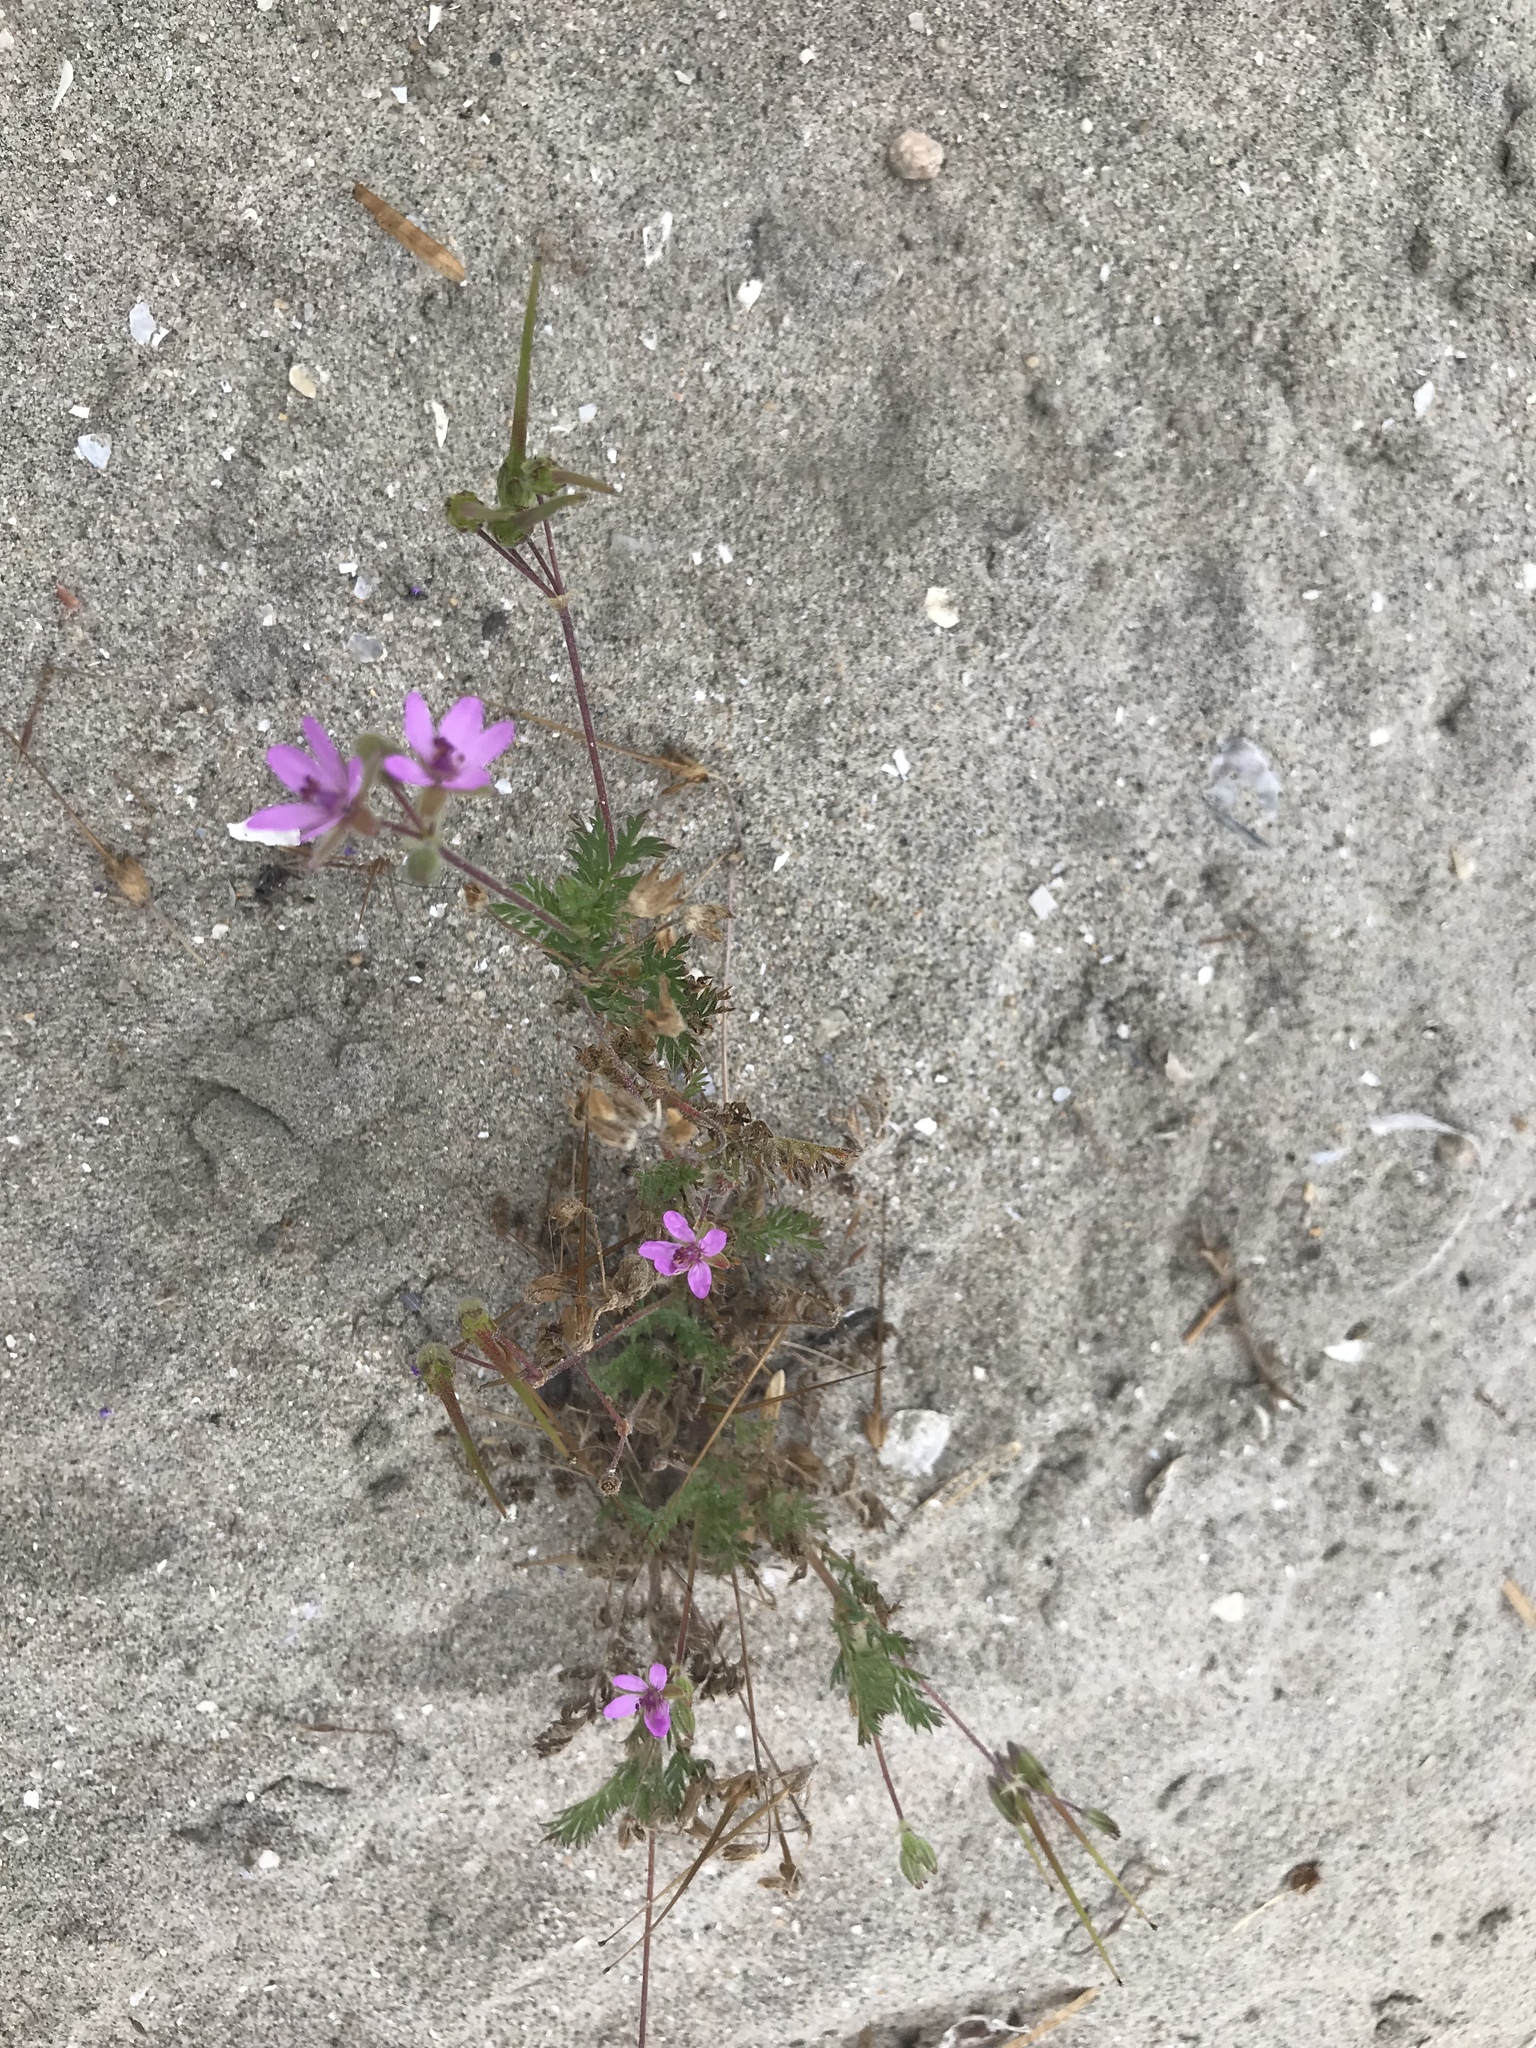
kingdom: Plantae
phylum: Tracheophyta
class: Magnoliopsida
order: Geraniales
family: Geraniaceae
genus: Erodium
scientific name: Erodium cicutarium
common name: Common stork's-bill
